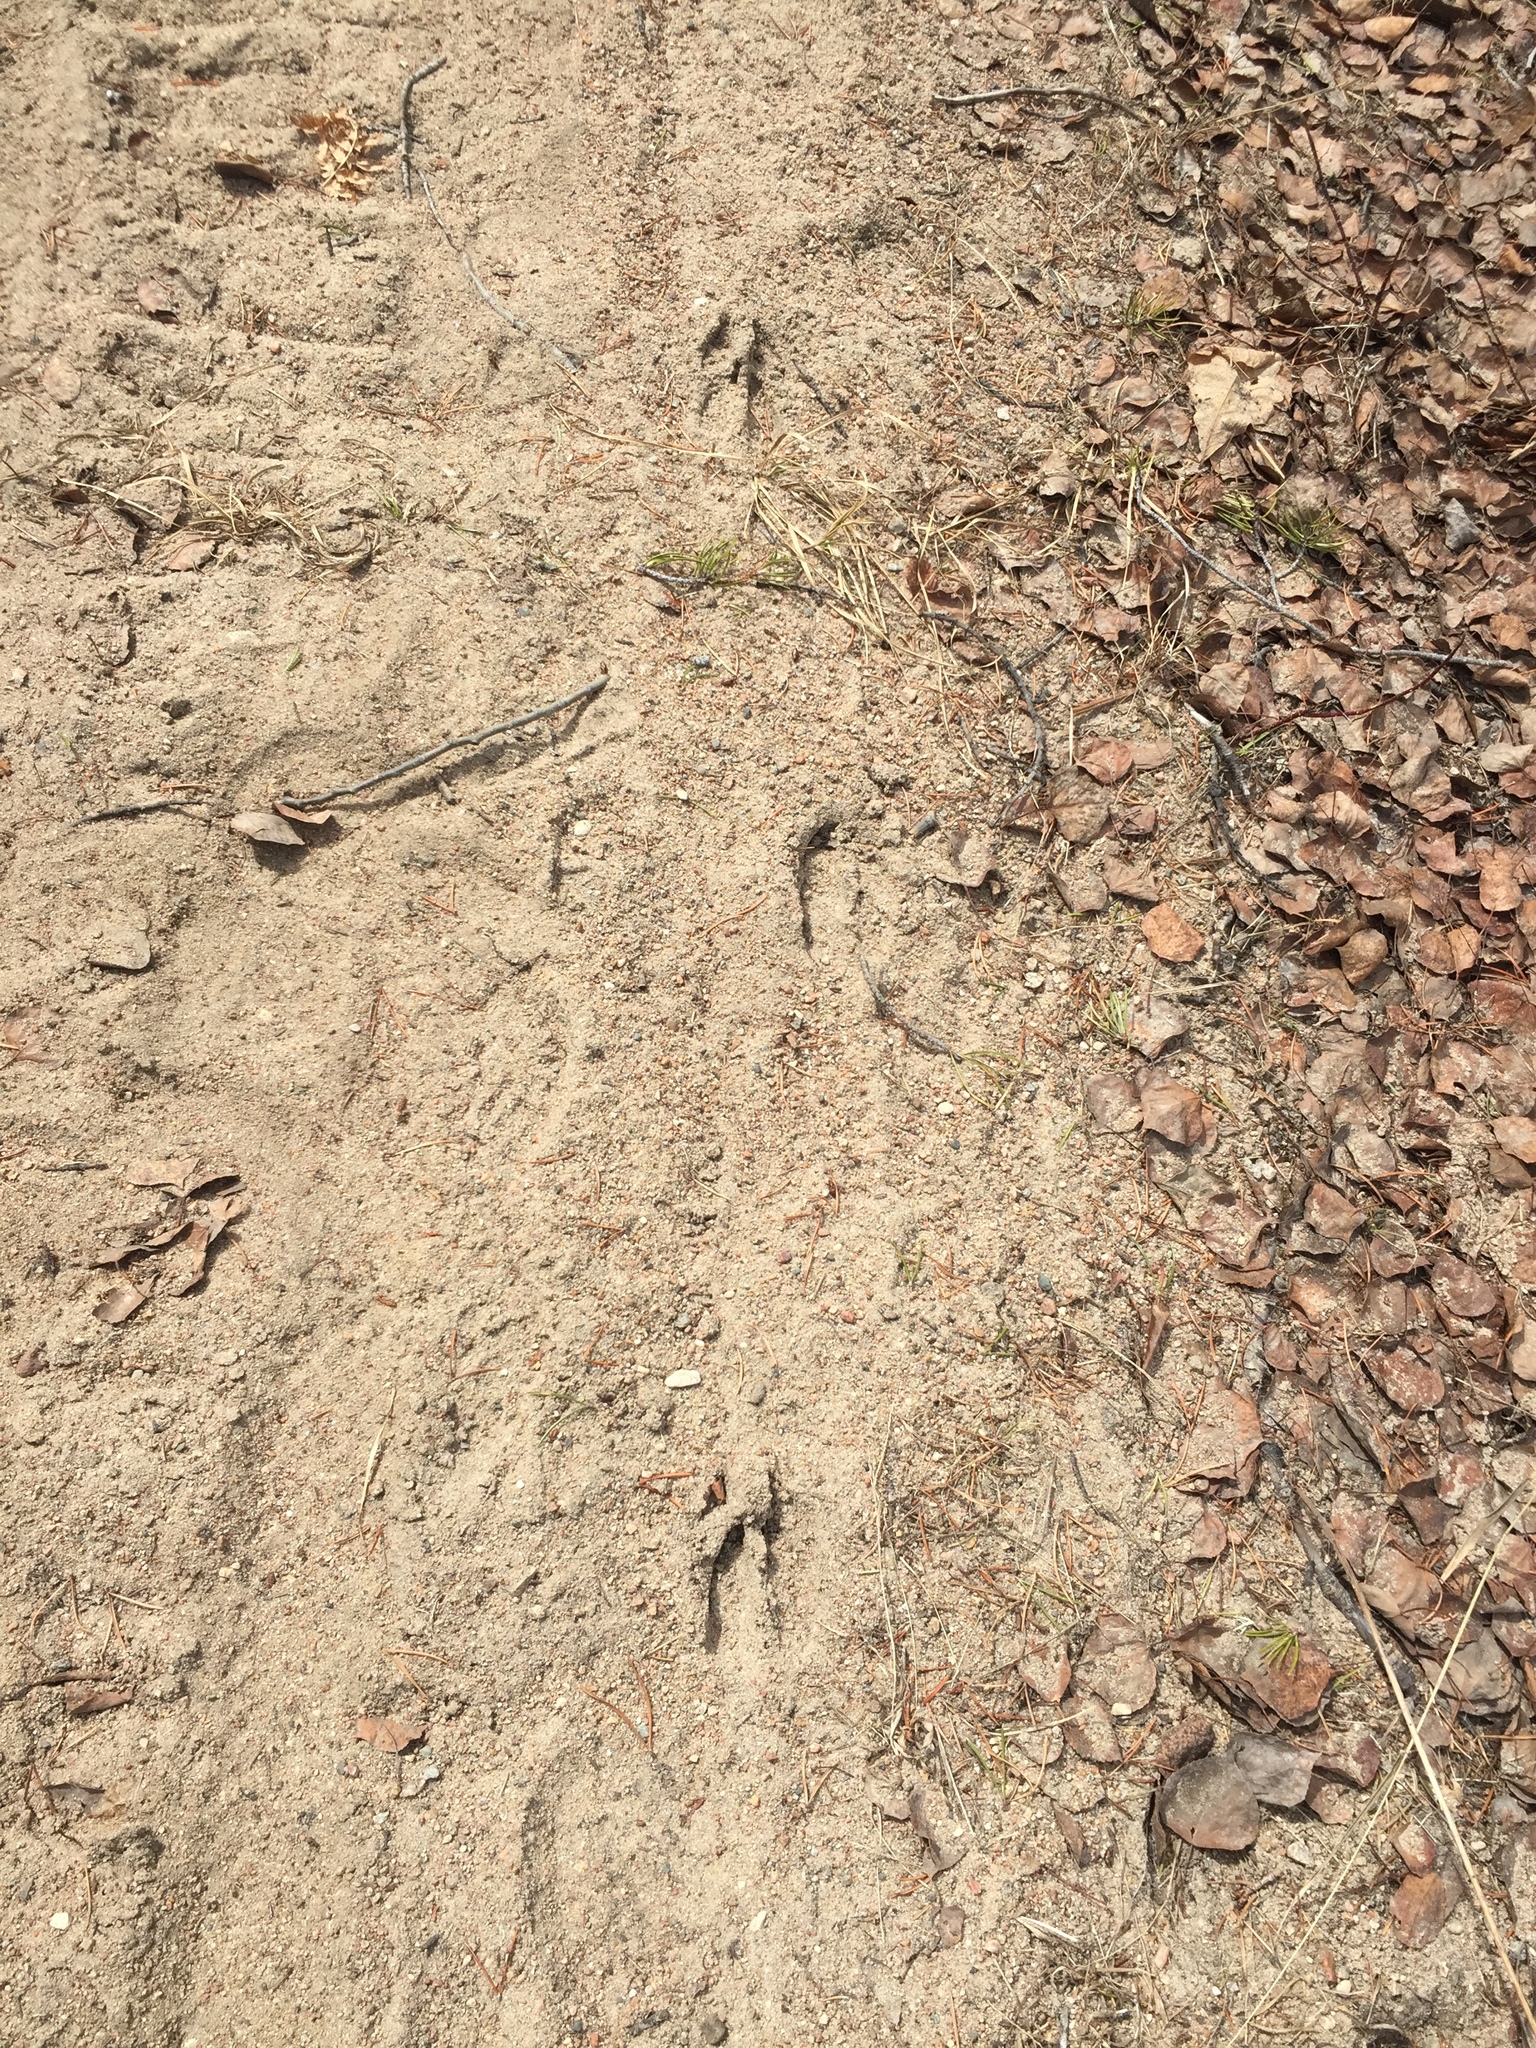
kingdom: Animalia
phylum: Chordata
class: Mammalia
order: Artiodactyla
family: Cervidae
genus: Odocoileus
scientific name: Odocoileus virginianus
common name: White-tailed deer
